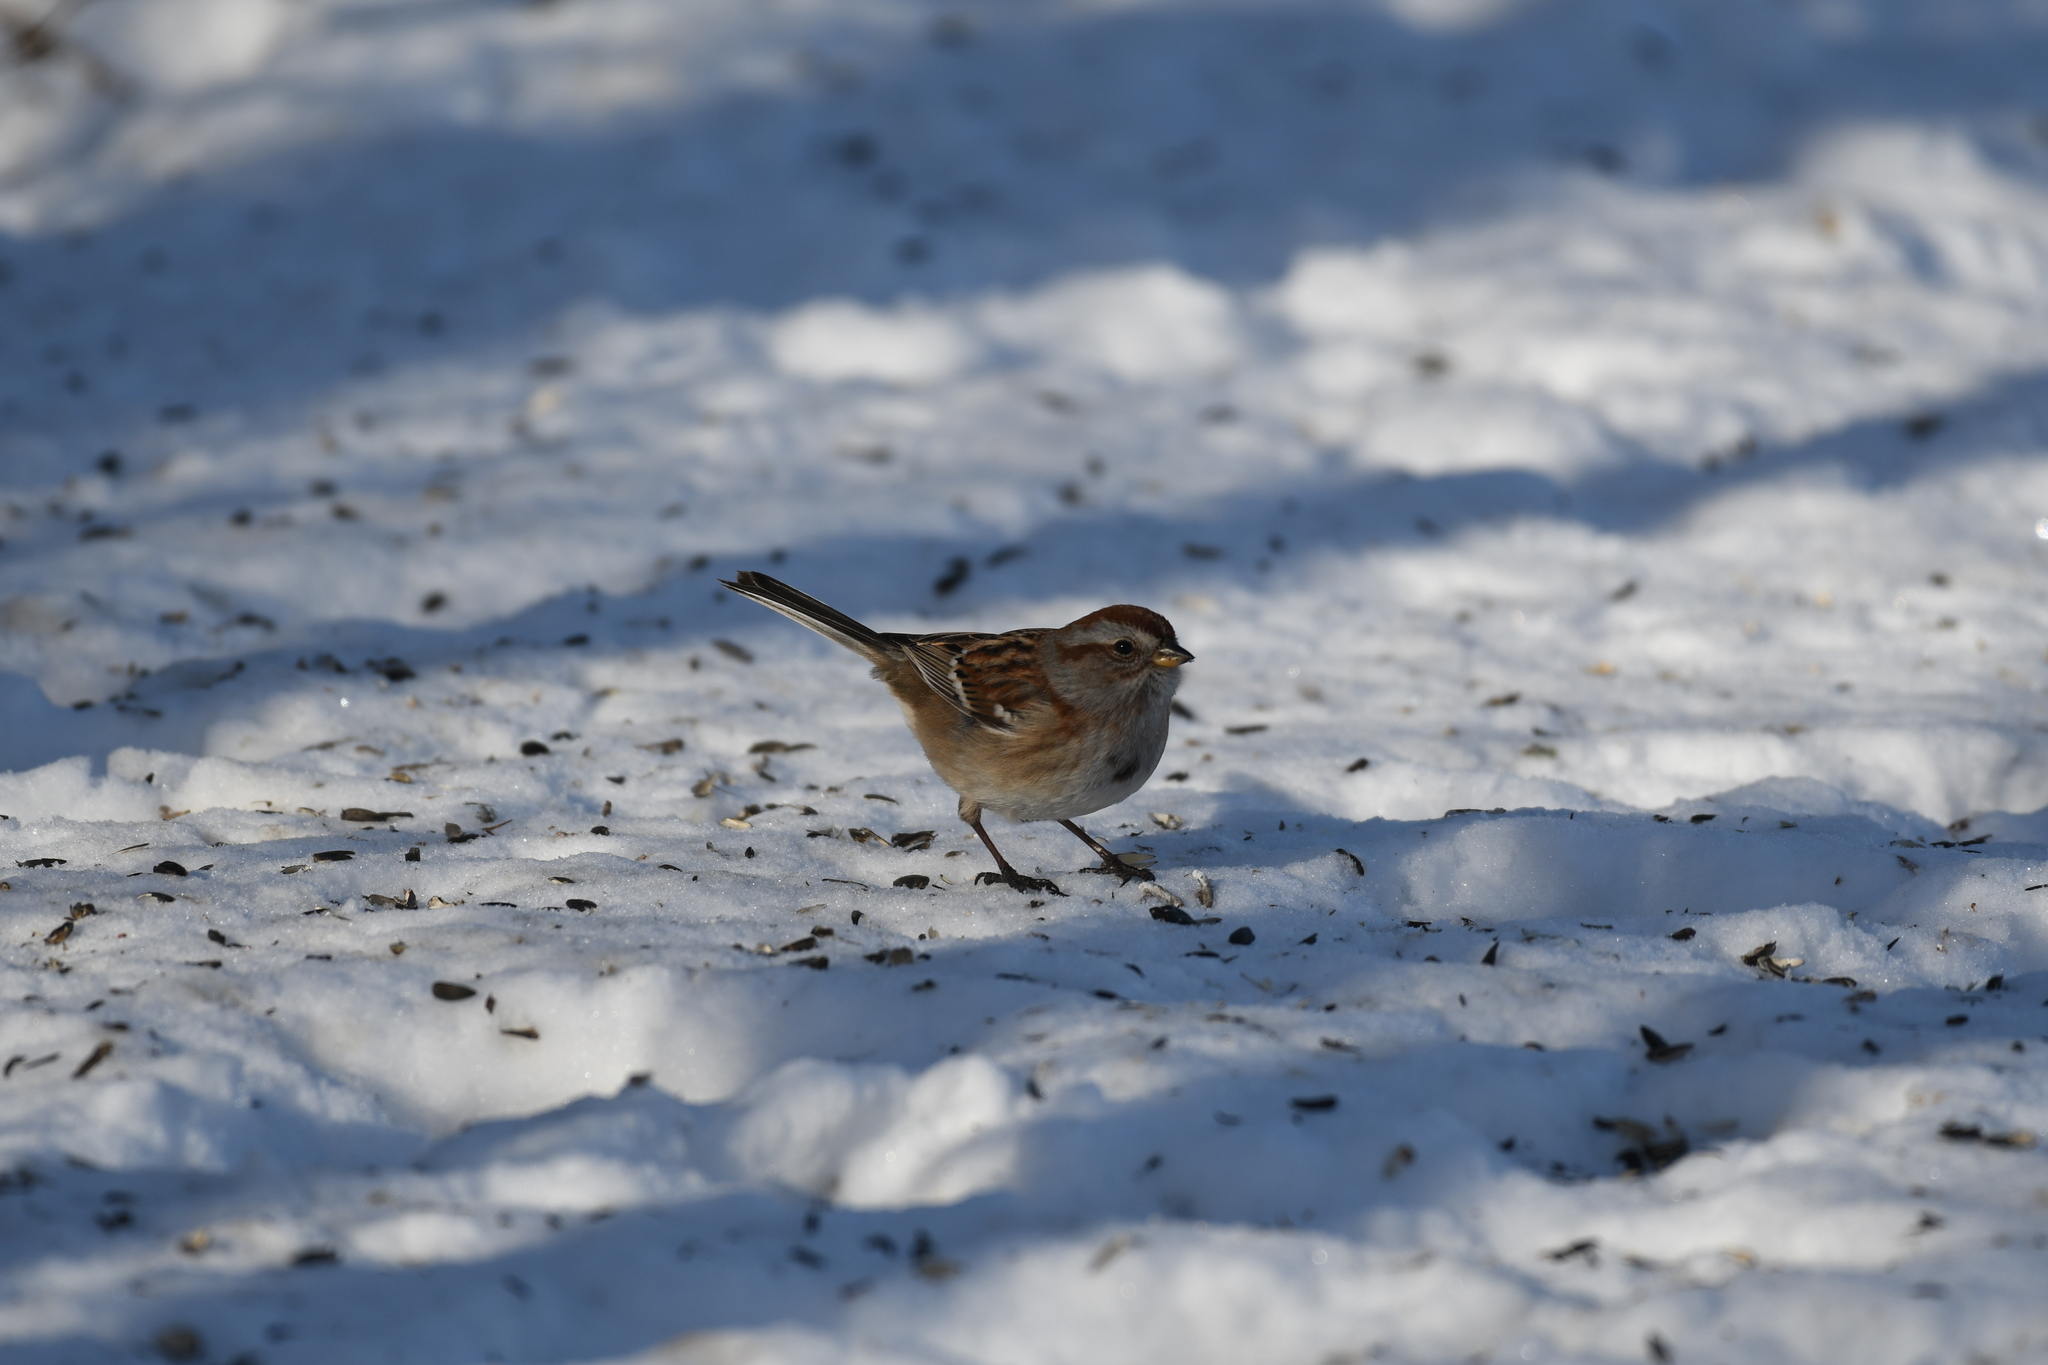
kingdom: Animalia
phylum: Chordata
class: Aves
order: Passeriformes
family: Passerellidae
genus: Spizelloides
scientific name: Spizelloides arborea
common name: American tree sparrow
